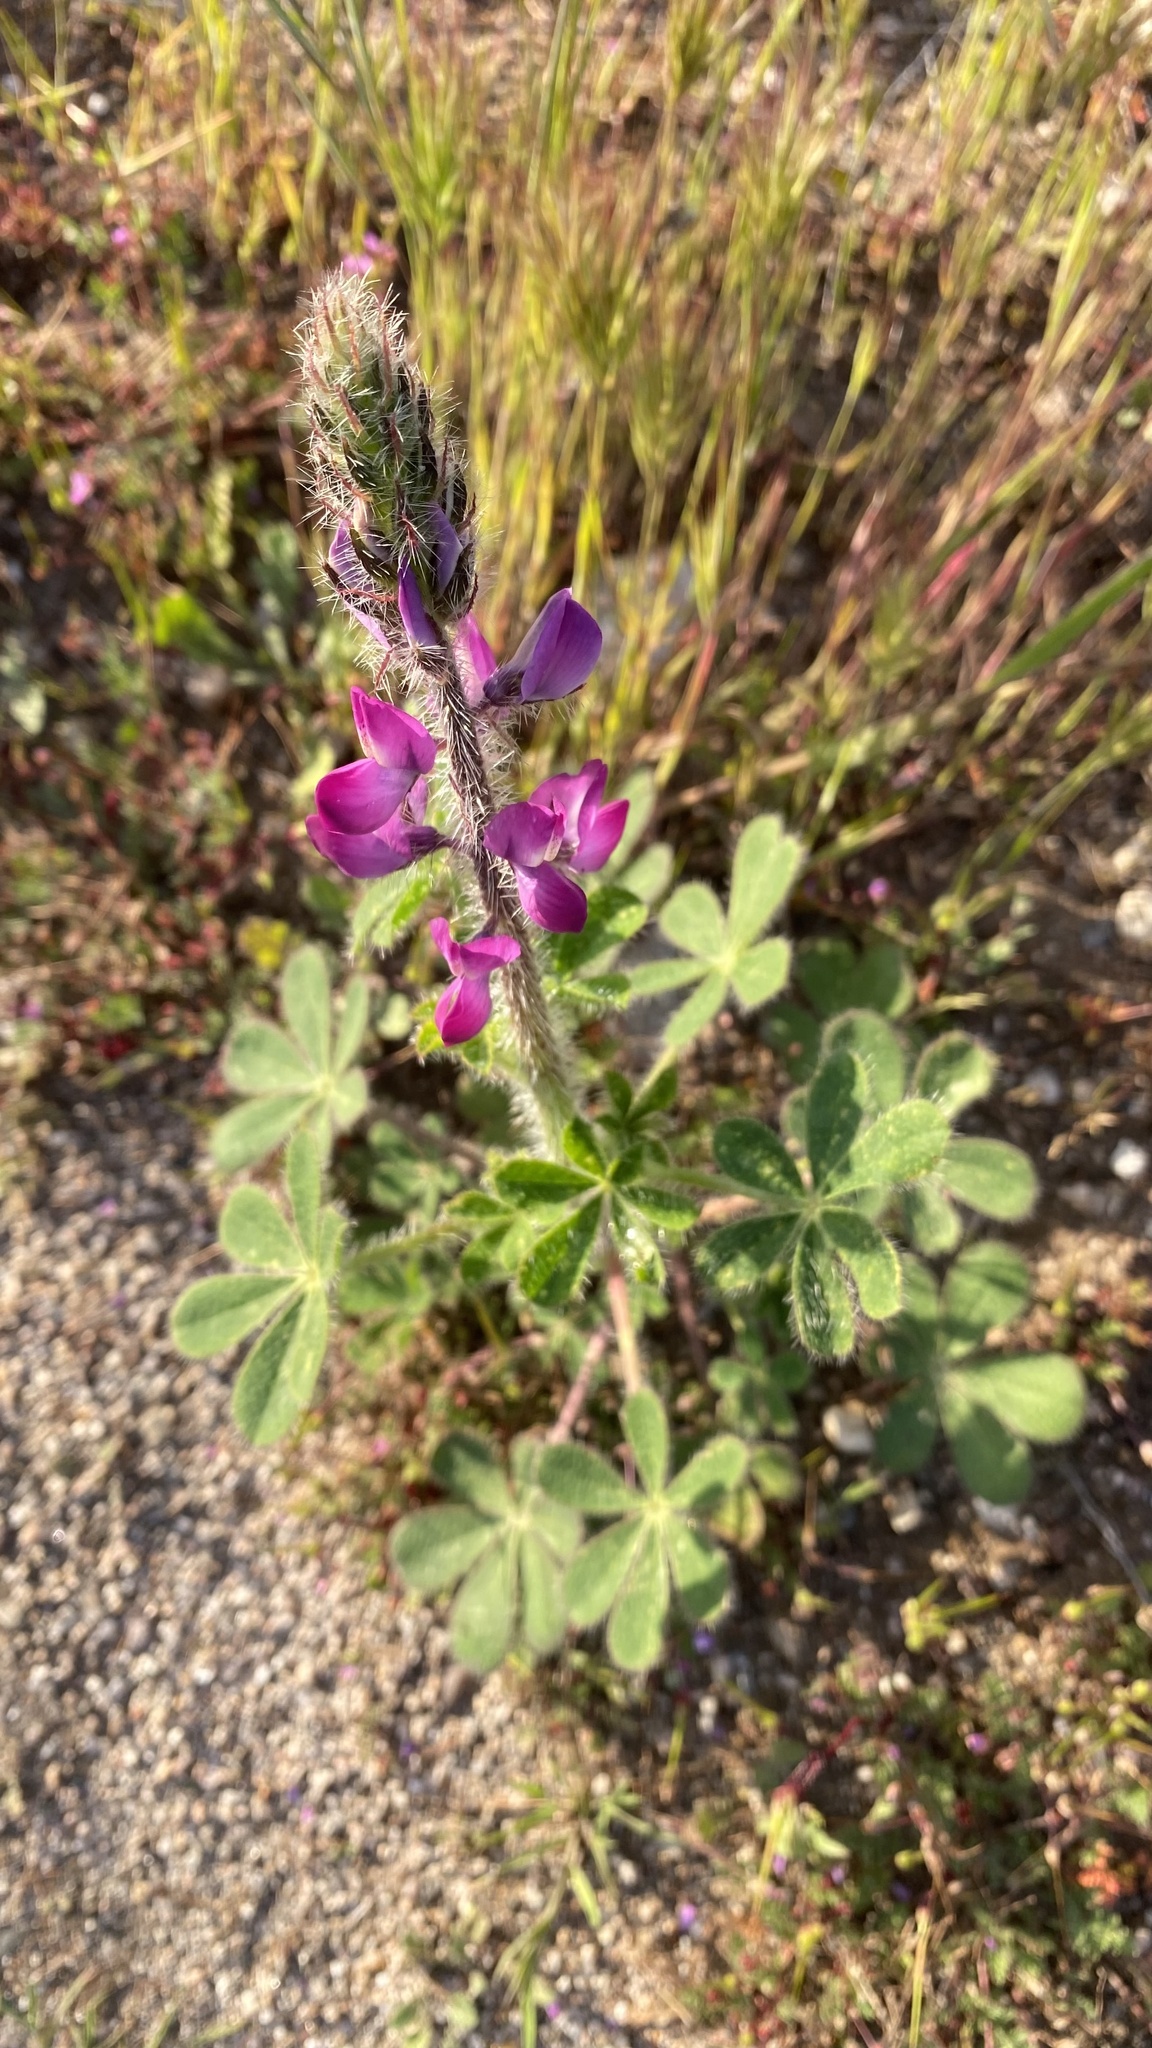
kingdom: Plantae
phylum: Tracheophyta
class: Magnoliopsida
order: Fabales
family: Fabaceae
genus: Lupinus
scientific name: Lupinus hirsutissimus
